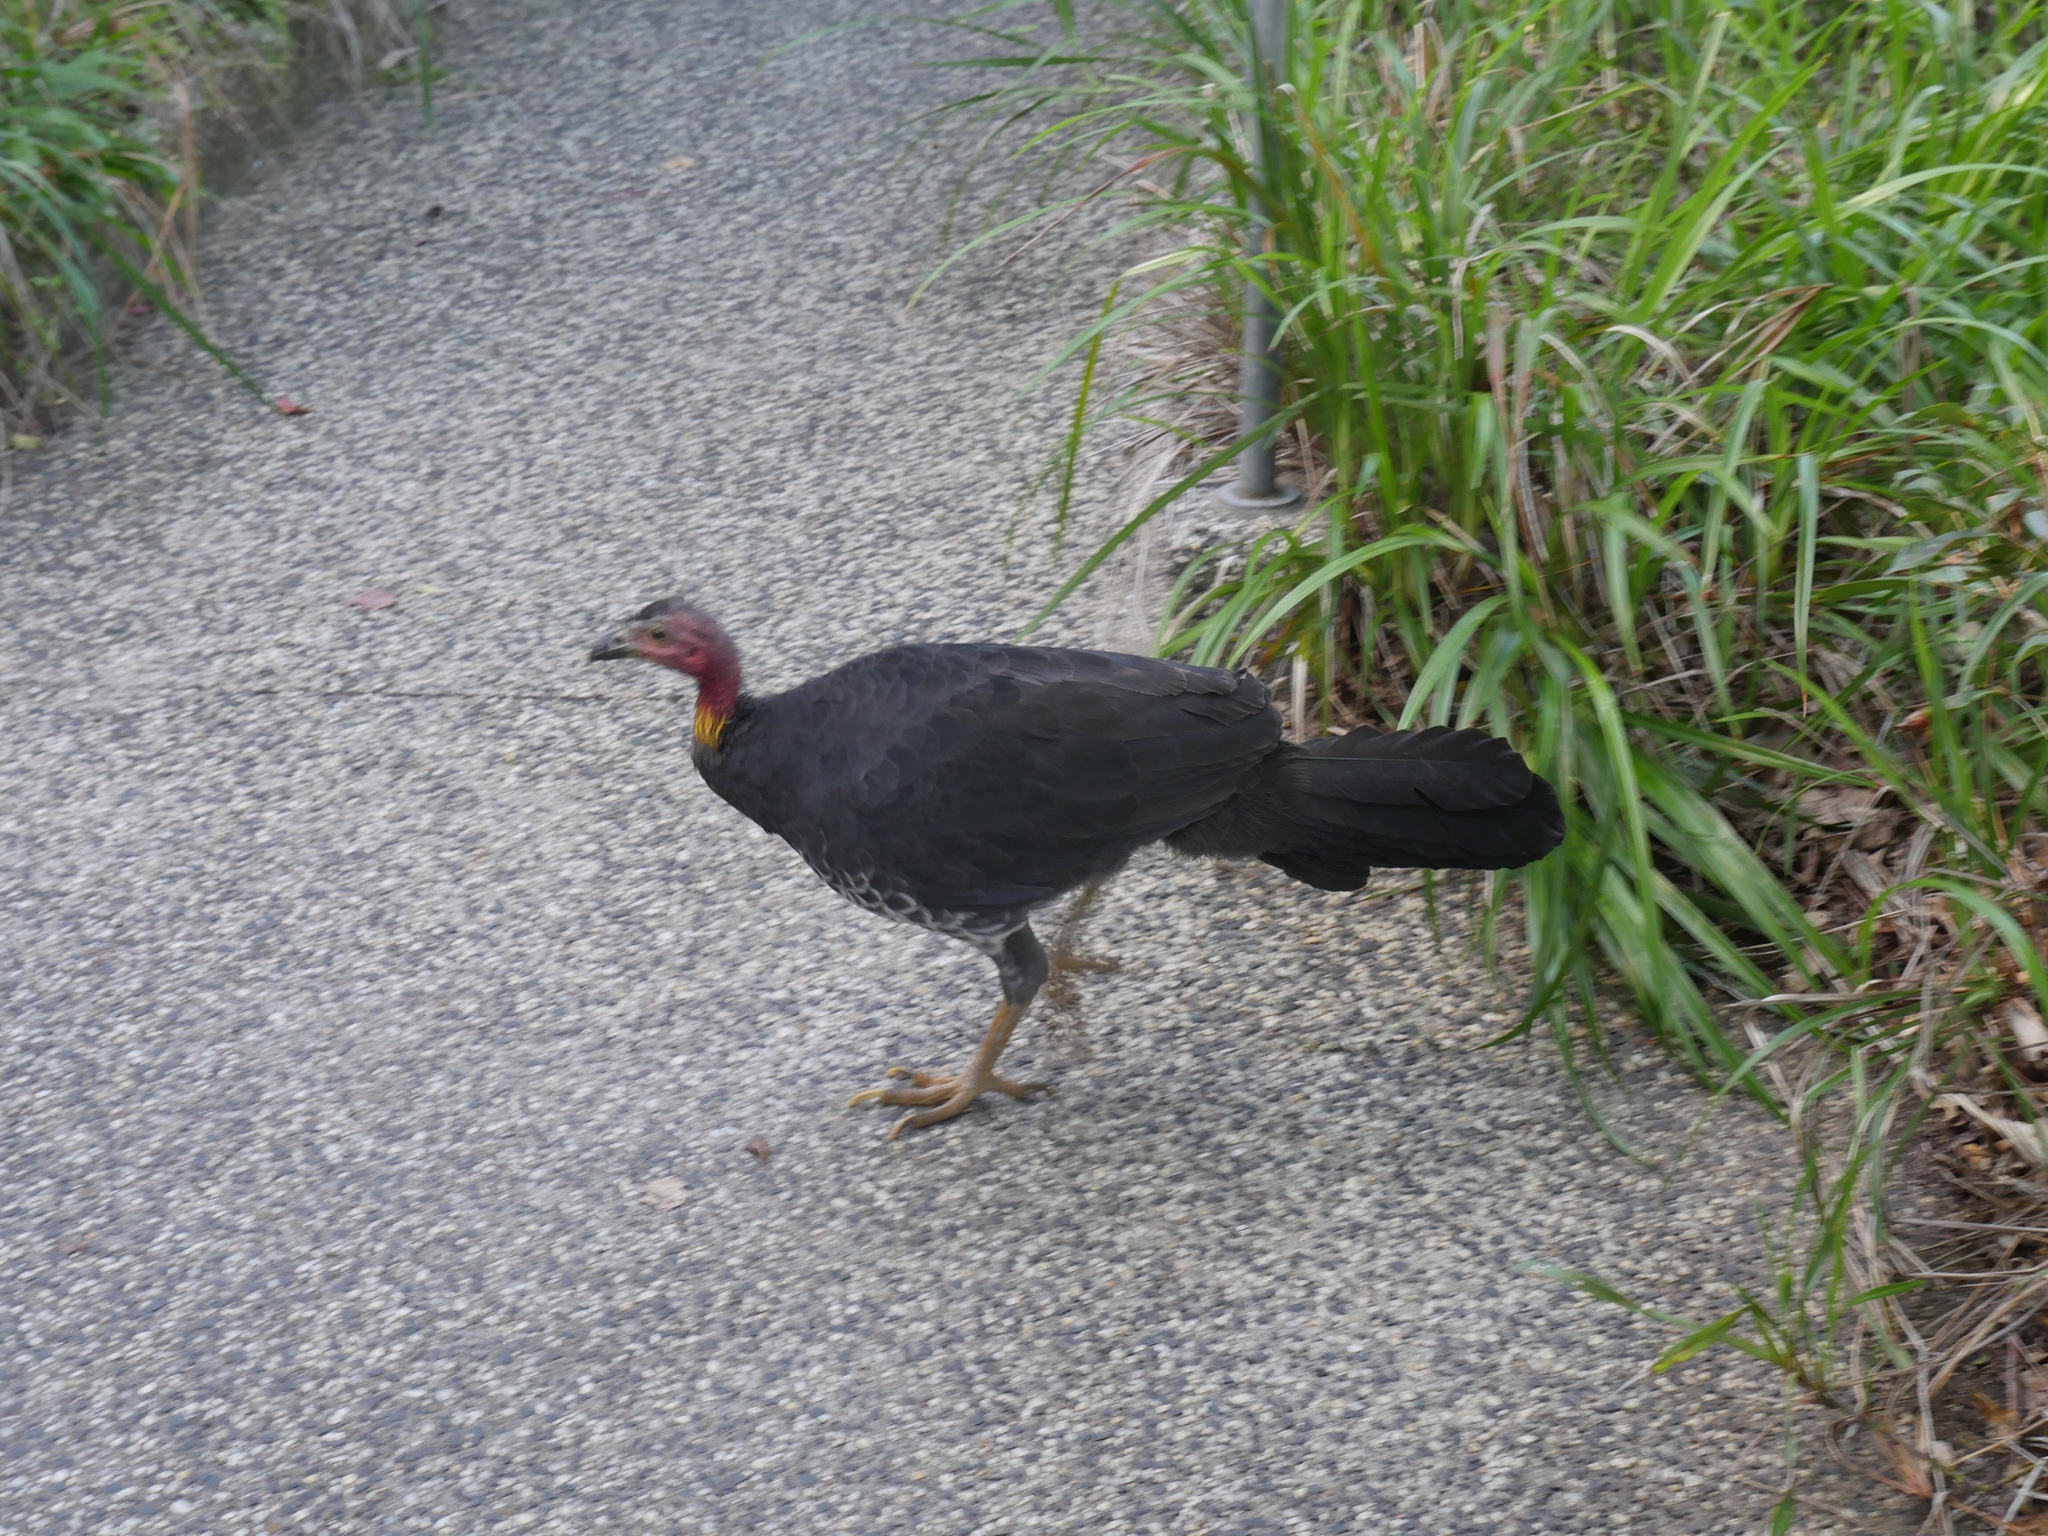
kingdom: Animalia
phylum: Chordata
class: Aves
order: Galliformes
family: Megapodiidae
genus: Alectura
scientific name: Alectura lathami
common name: Australian brushturkey
